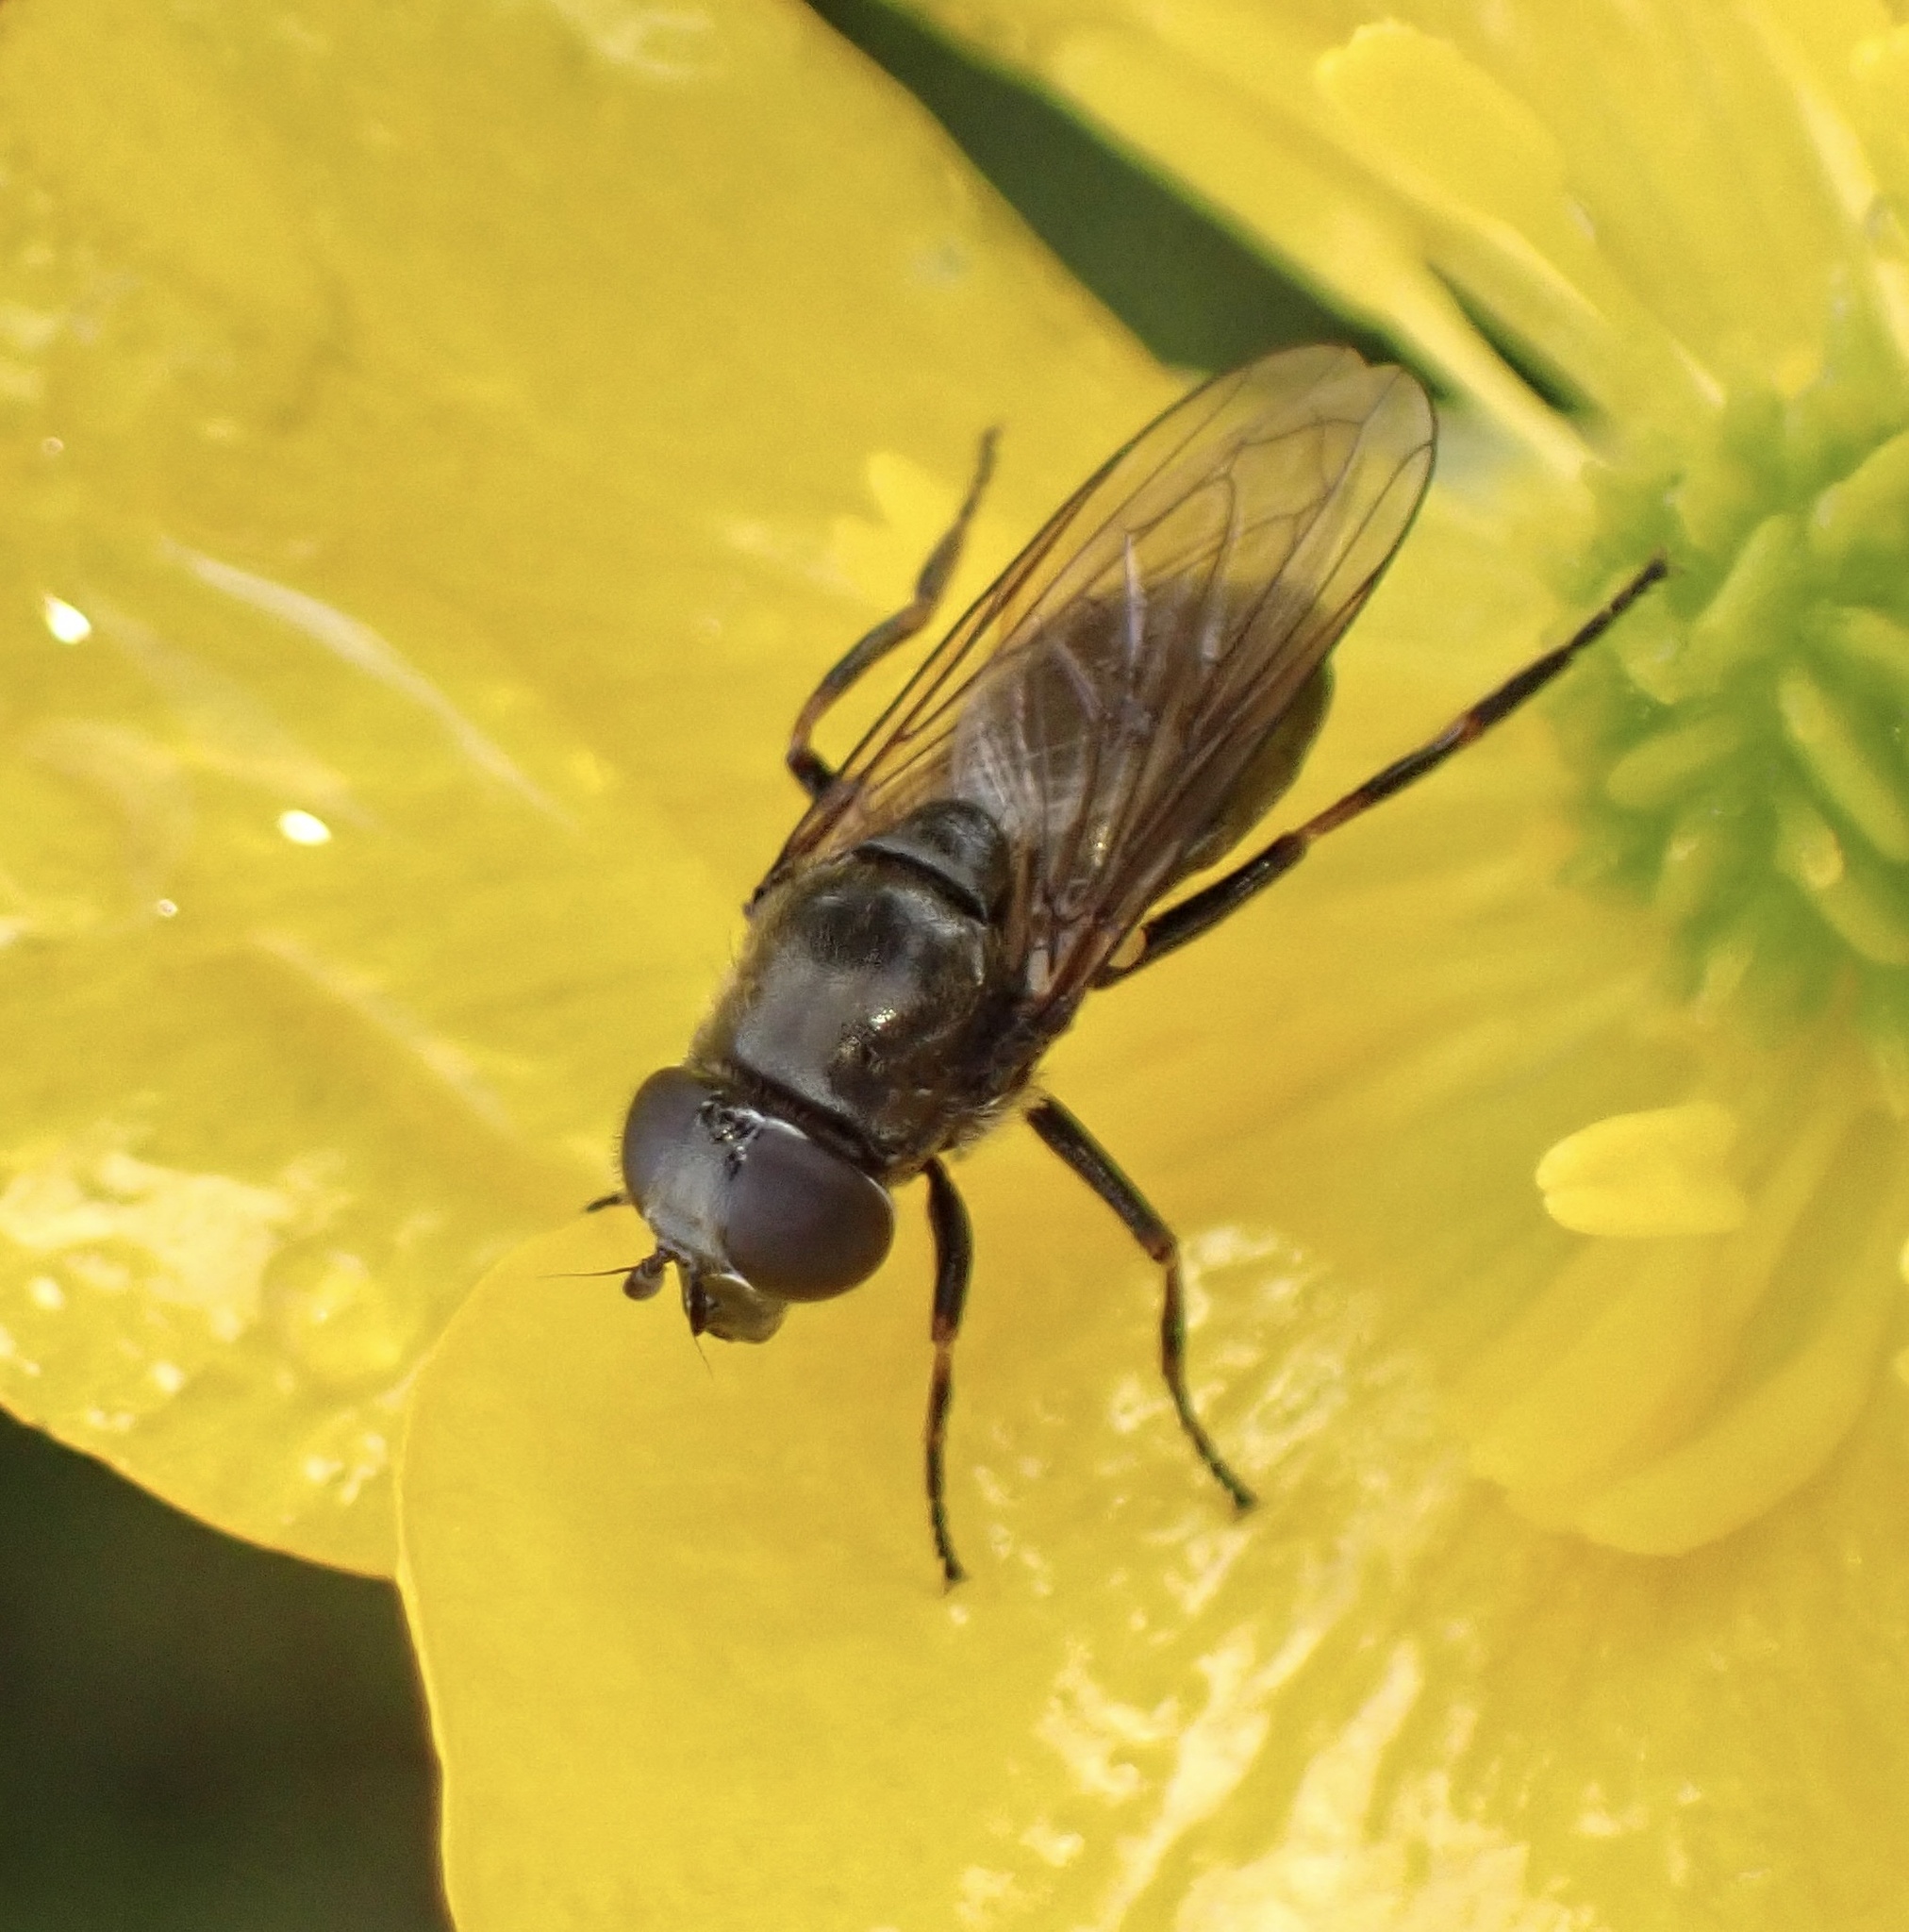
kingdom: Animalia
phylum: Arthropoda
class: Insecta
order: Diptera
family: Syrphidae
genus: Cheilosia
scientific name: Cheilosia
